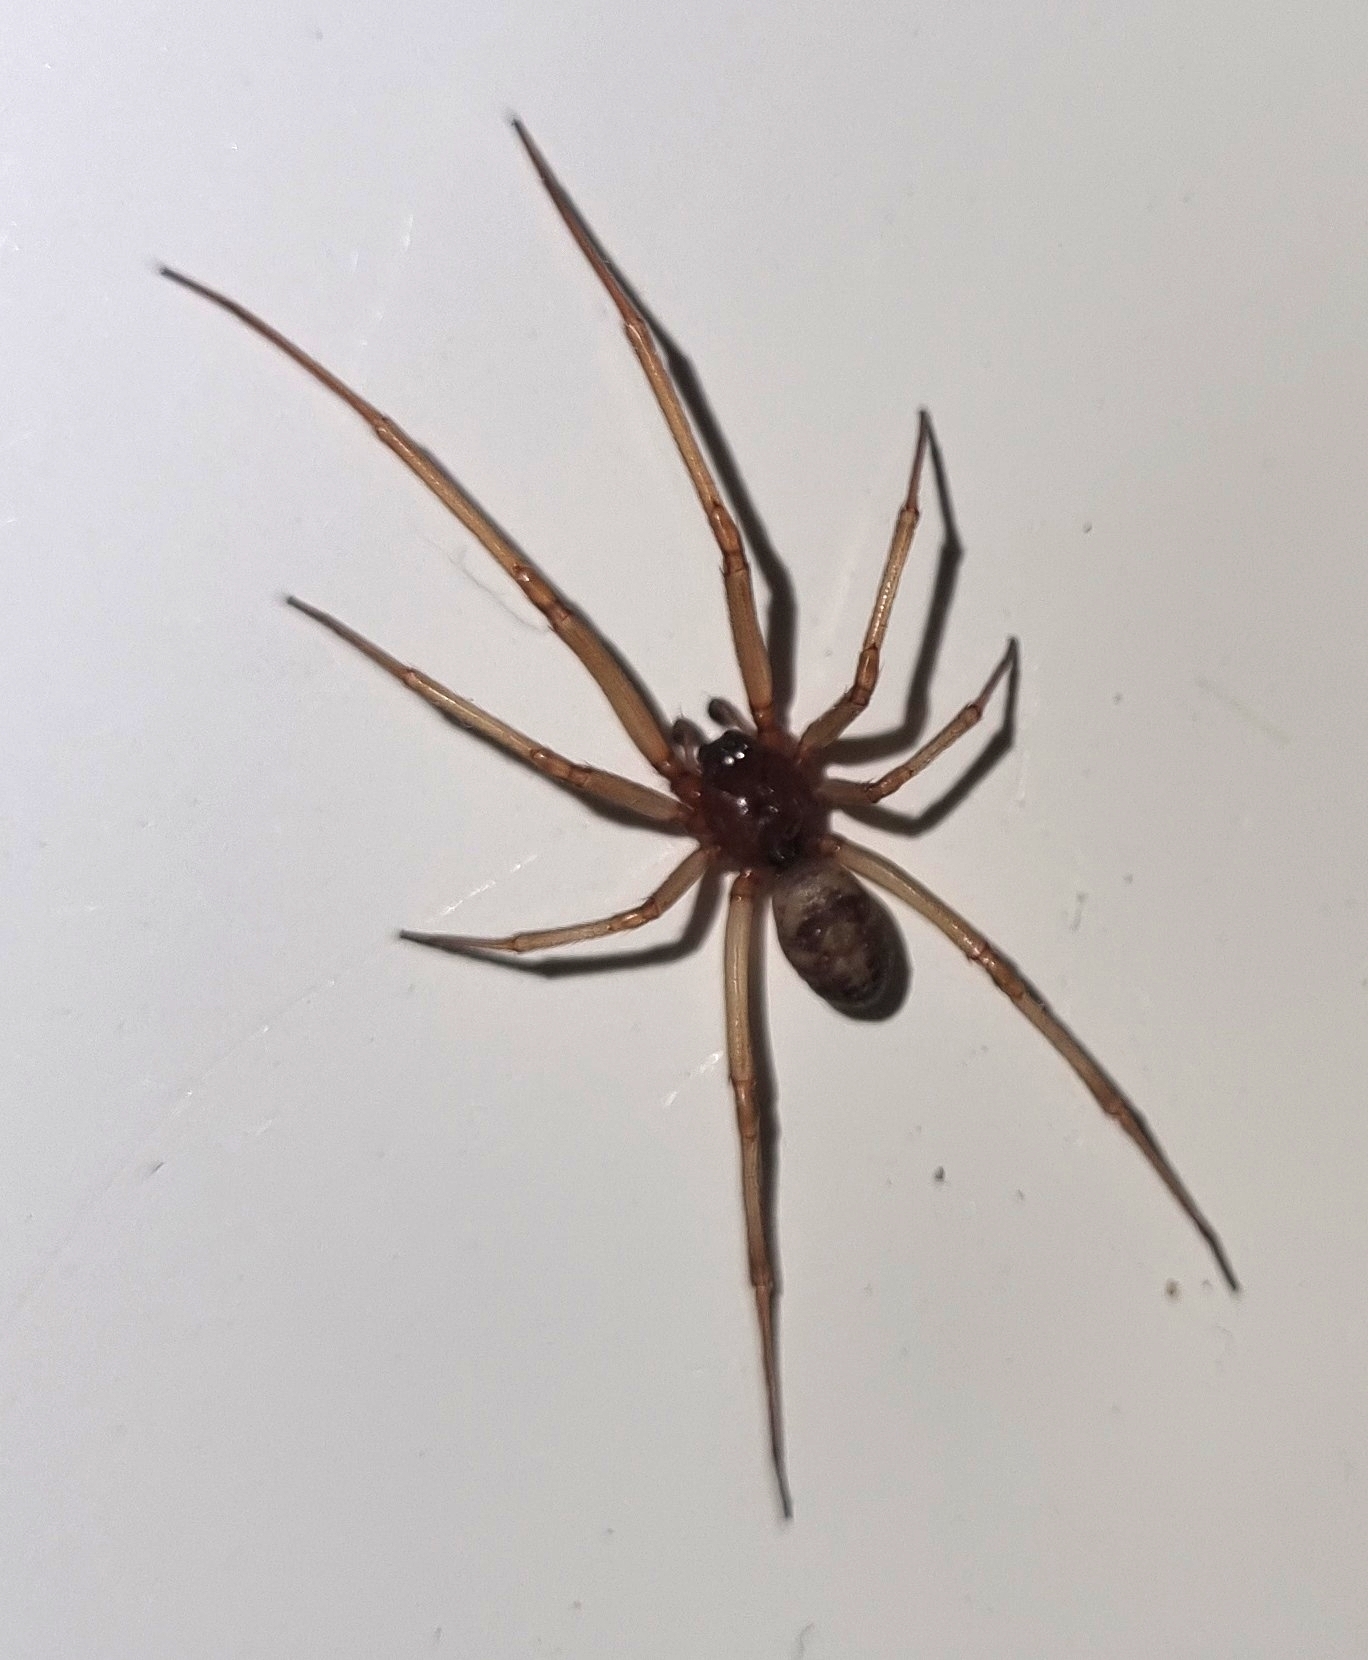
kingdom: Animalia
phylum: Arthropoda
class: Arachnida
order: Araneae
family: Theridiidae
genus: Steatoda
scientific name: Steatoda grossa
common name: False black widow
